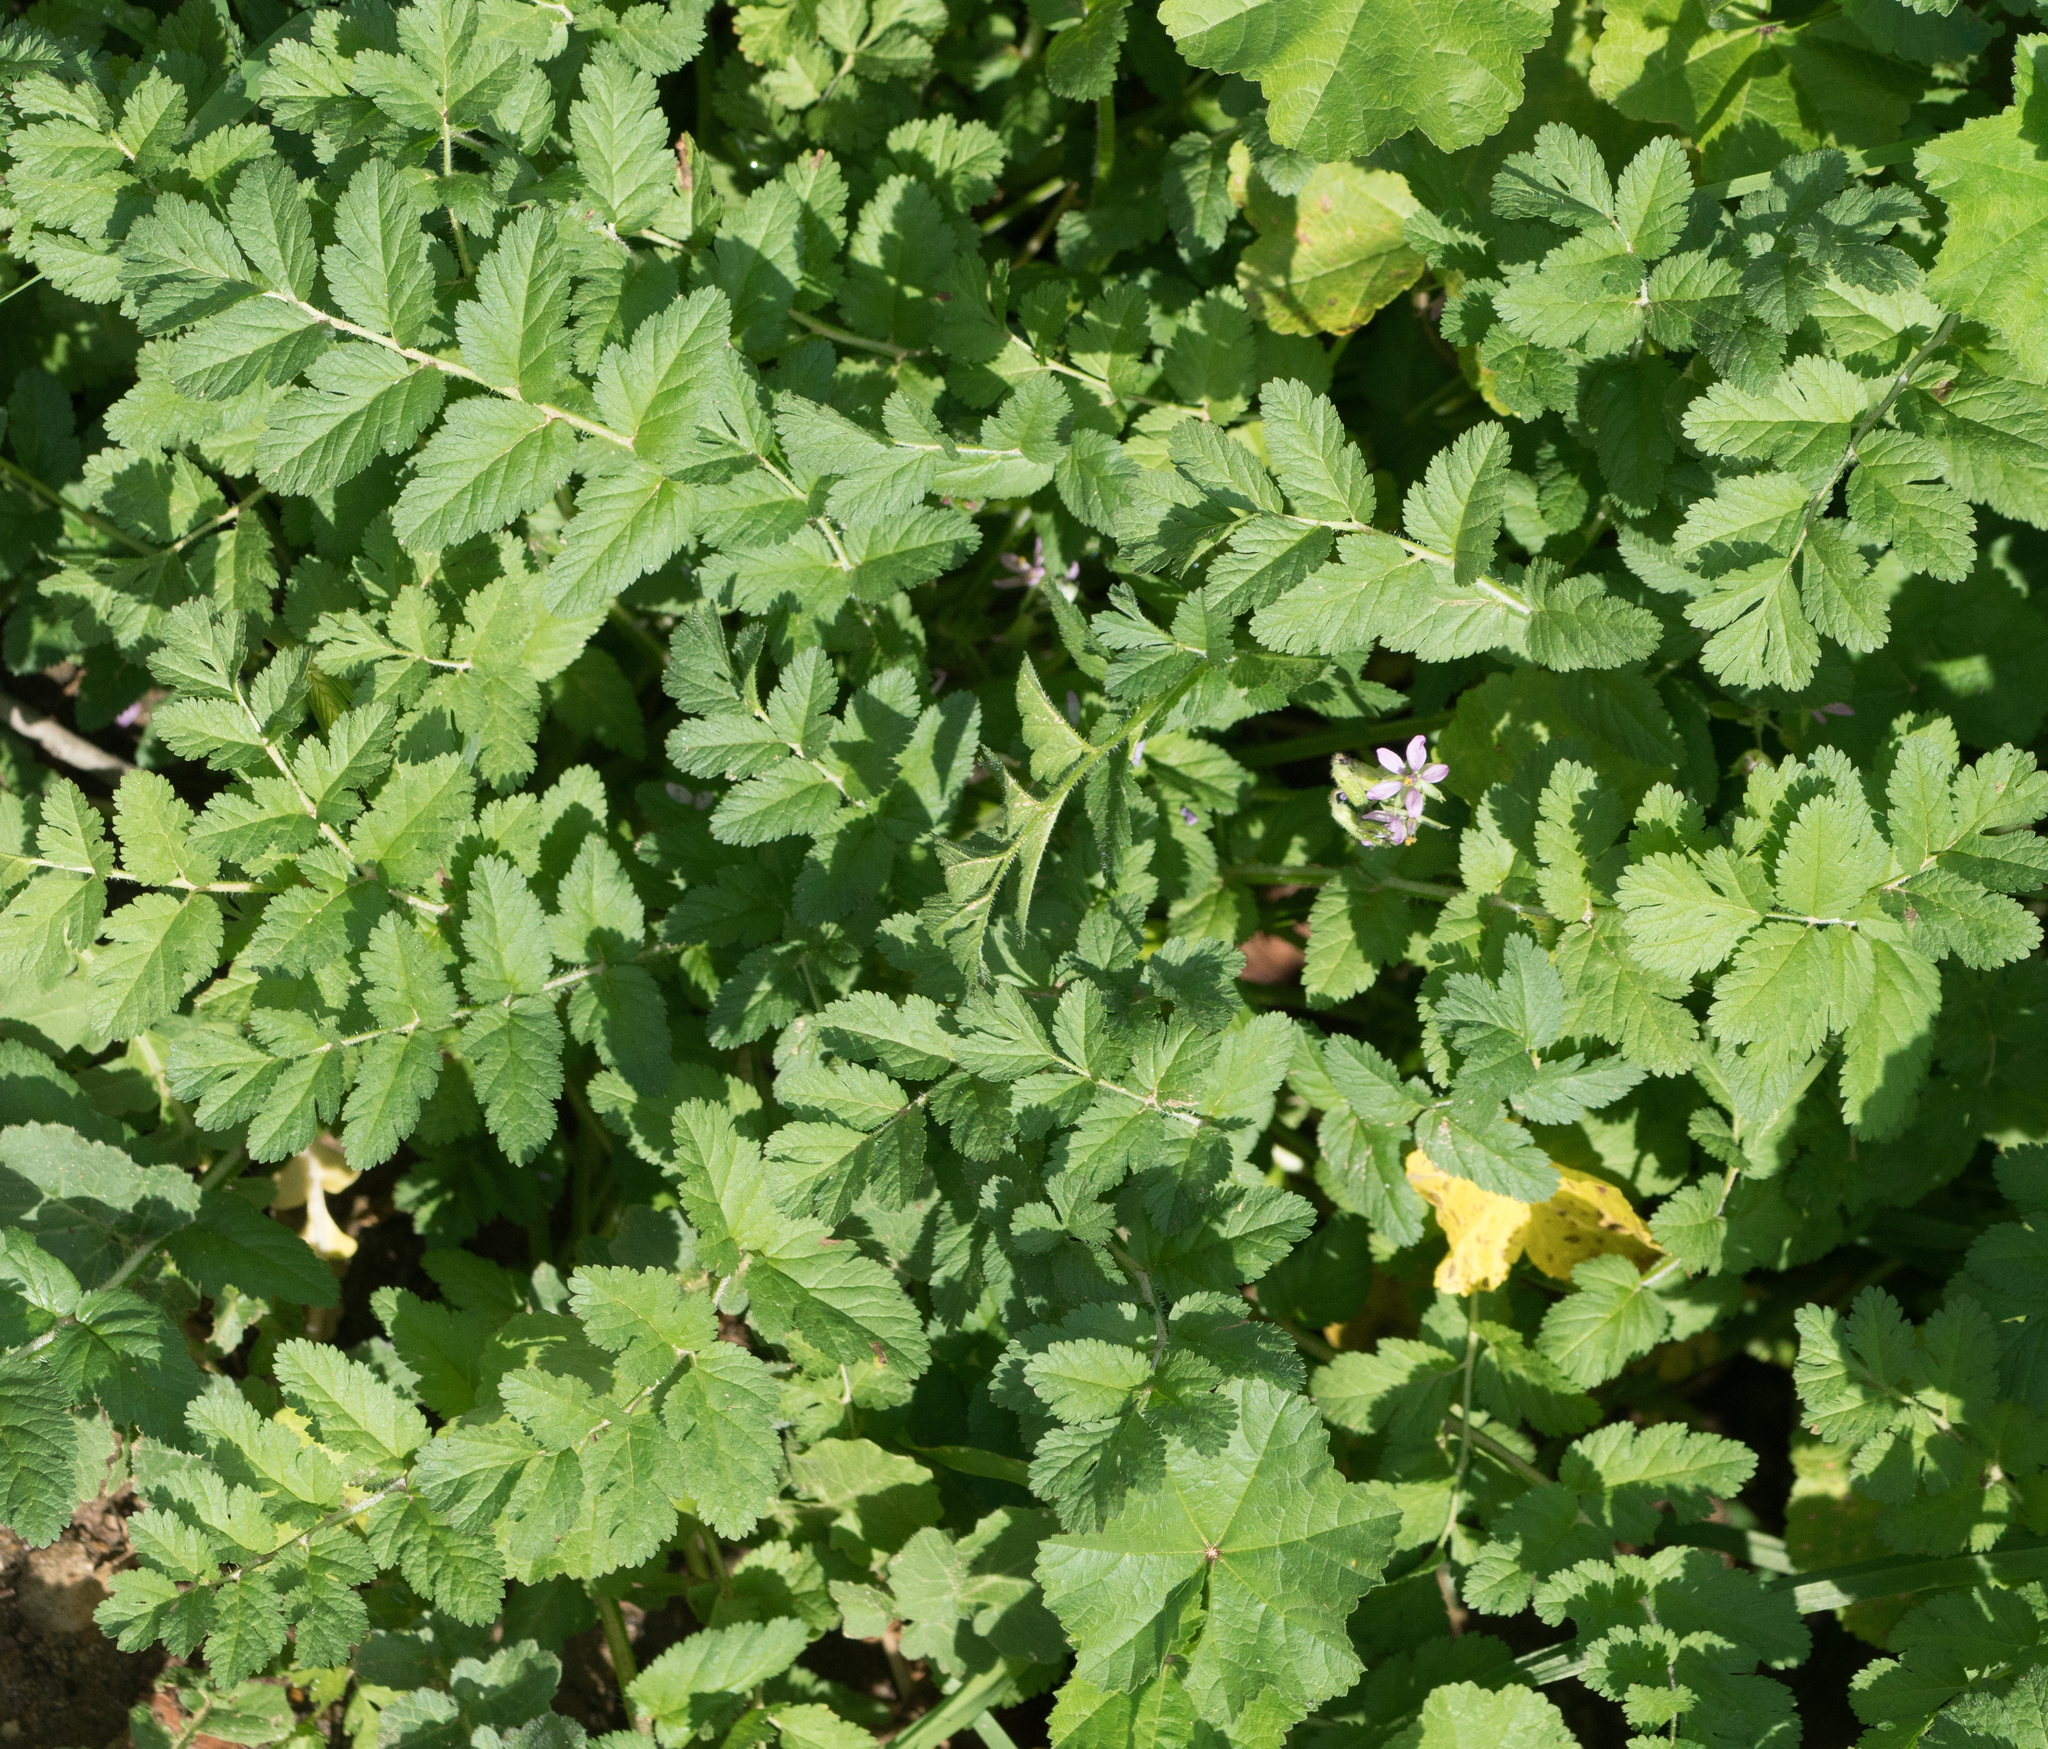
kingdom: Plantae
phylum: Tracheophyta
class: Magnoliopsida
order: Geraniales
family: Geraniaceae
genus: Erodium
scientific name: Erodium moschatum
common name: Musk stork's-bill
